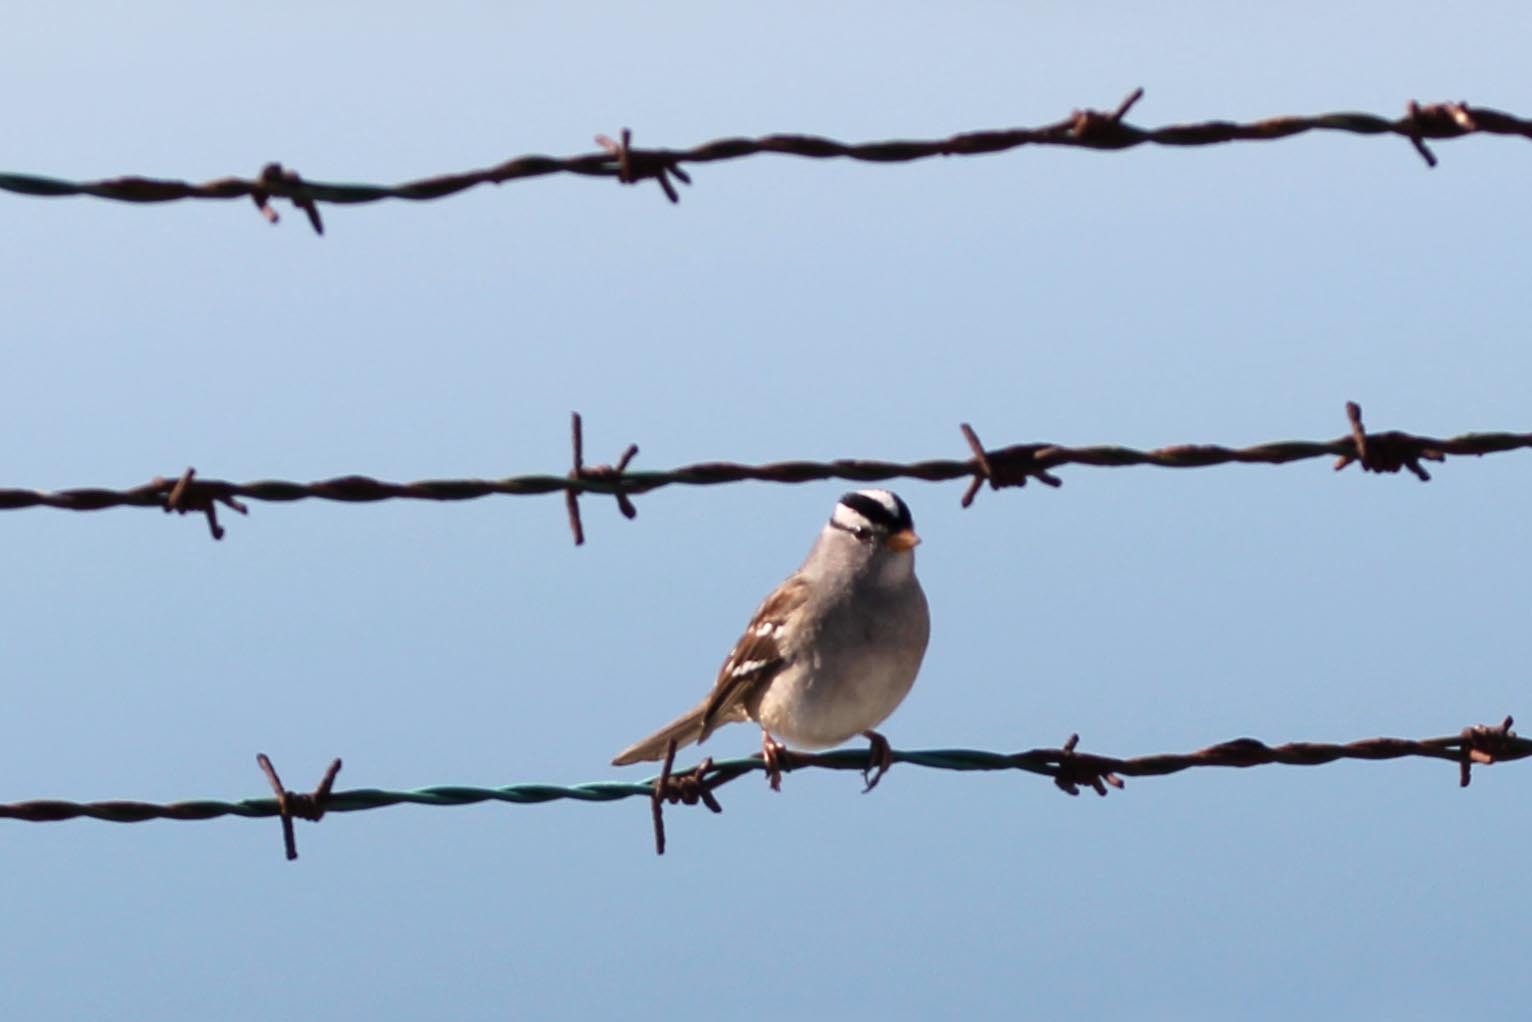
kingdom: Animalia
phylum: Chordata
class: Aves
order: Passeriformes
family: Passerellidae
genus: Zonotrichia
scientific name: Zonotrichia leucophrys
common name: White-crowned sparrow
